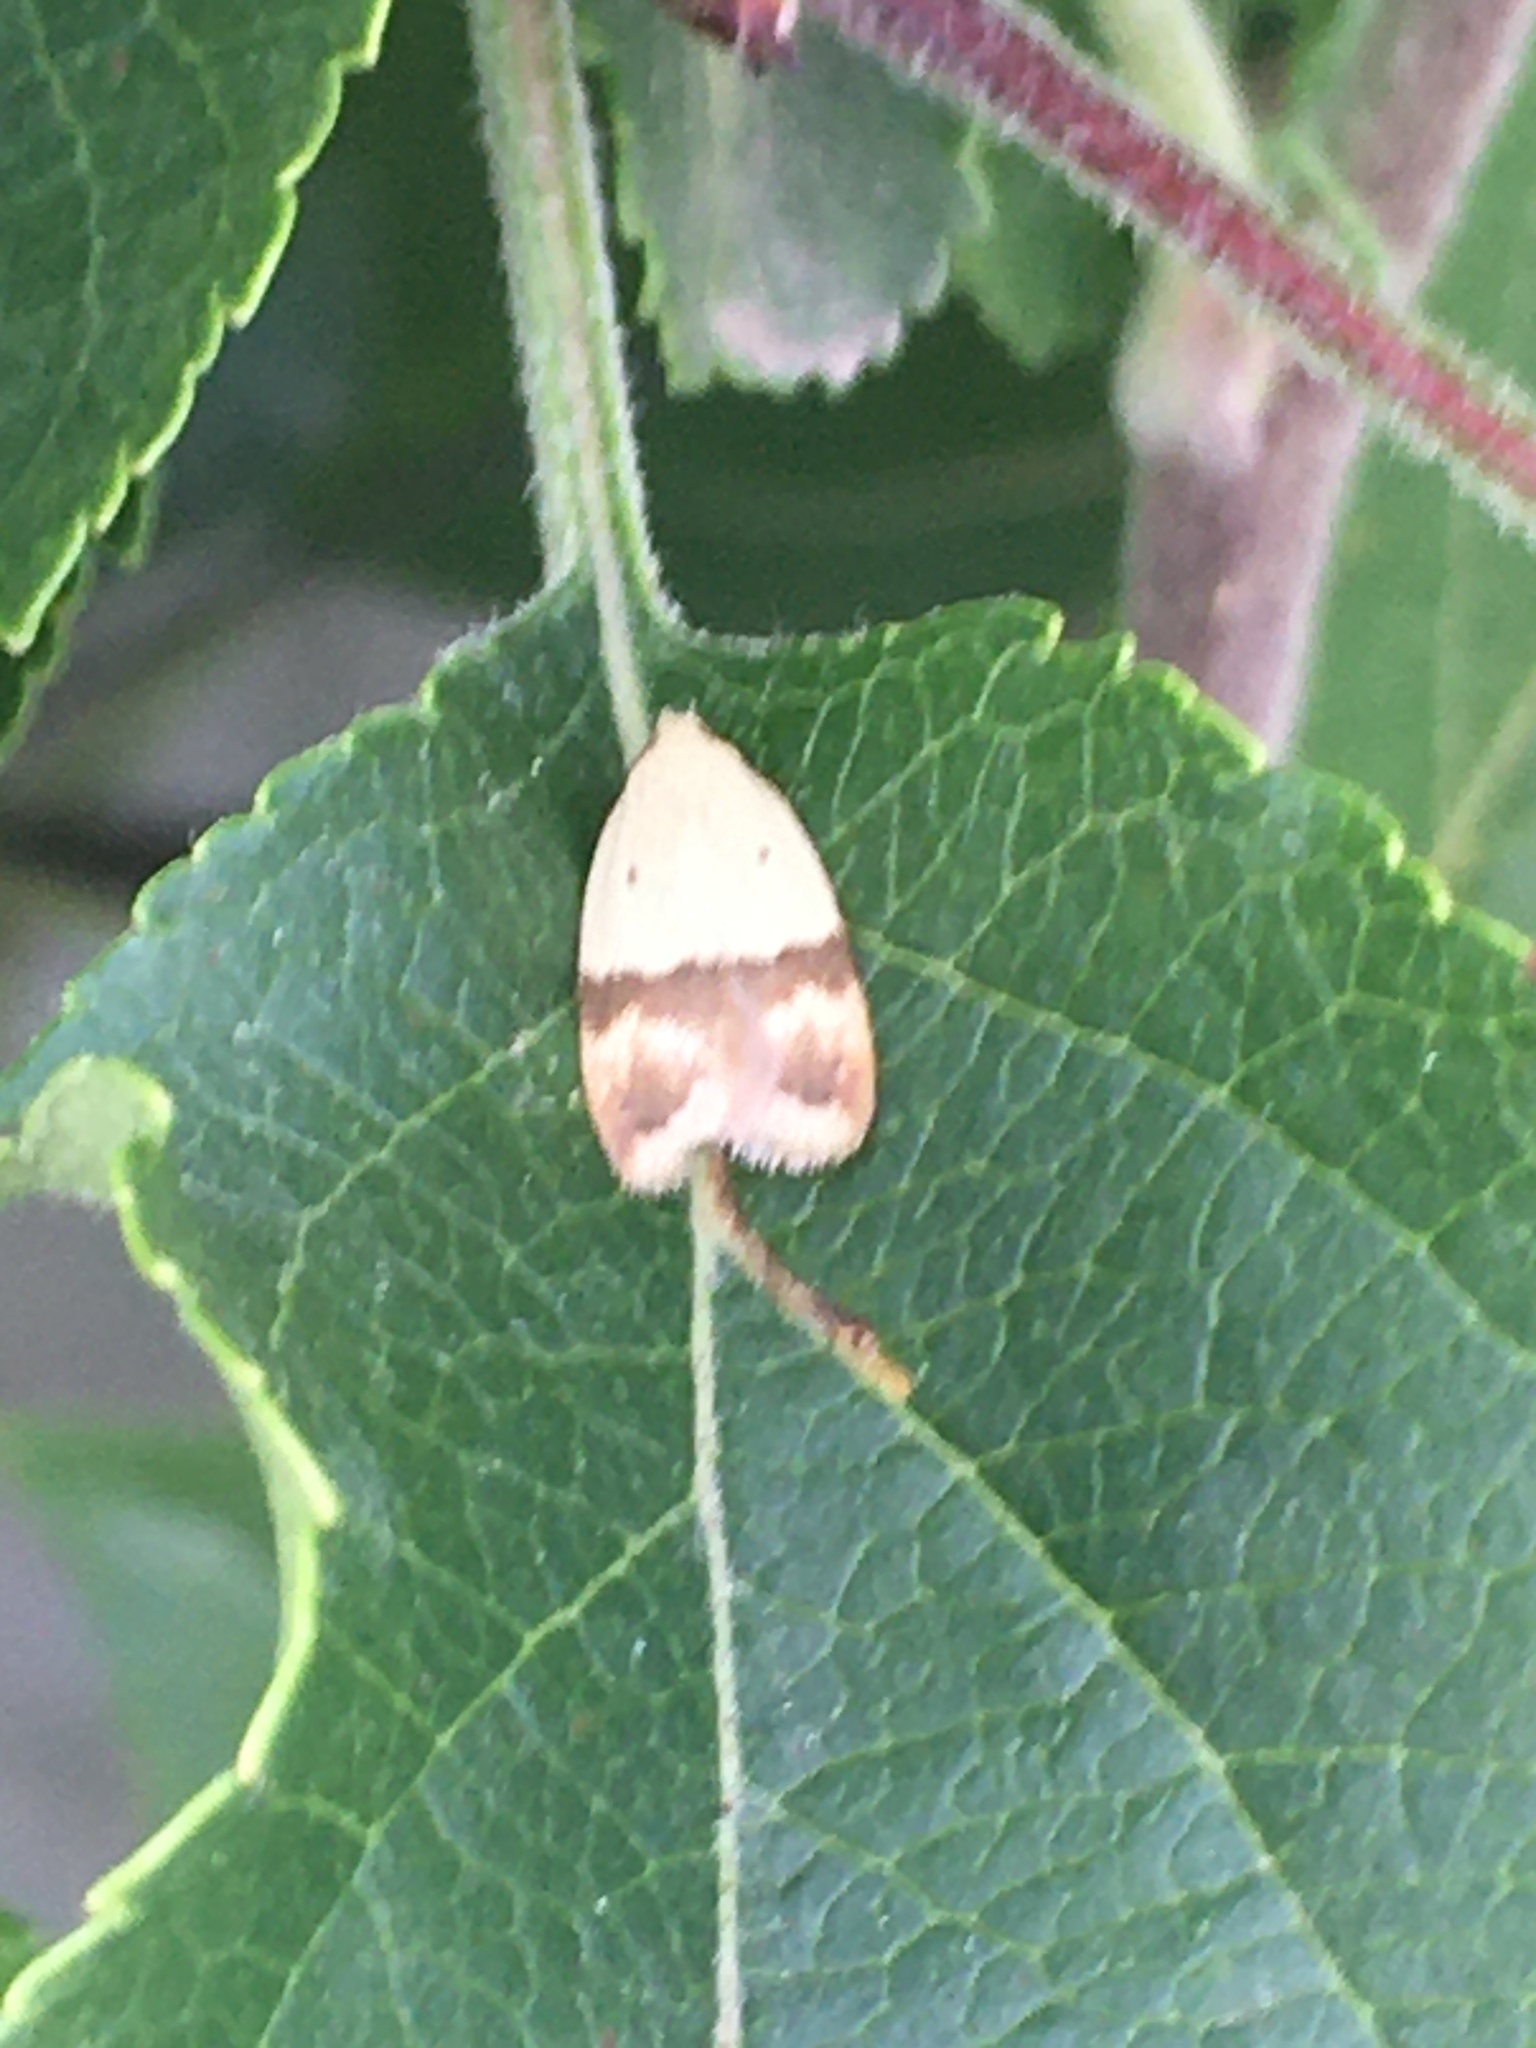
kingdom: Animalia
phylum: Arthropoda
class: Insecta
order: Lepidoptera
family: Peleopodidae
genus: Odites
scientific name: Odites kollarella
